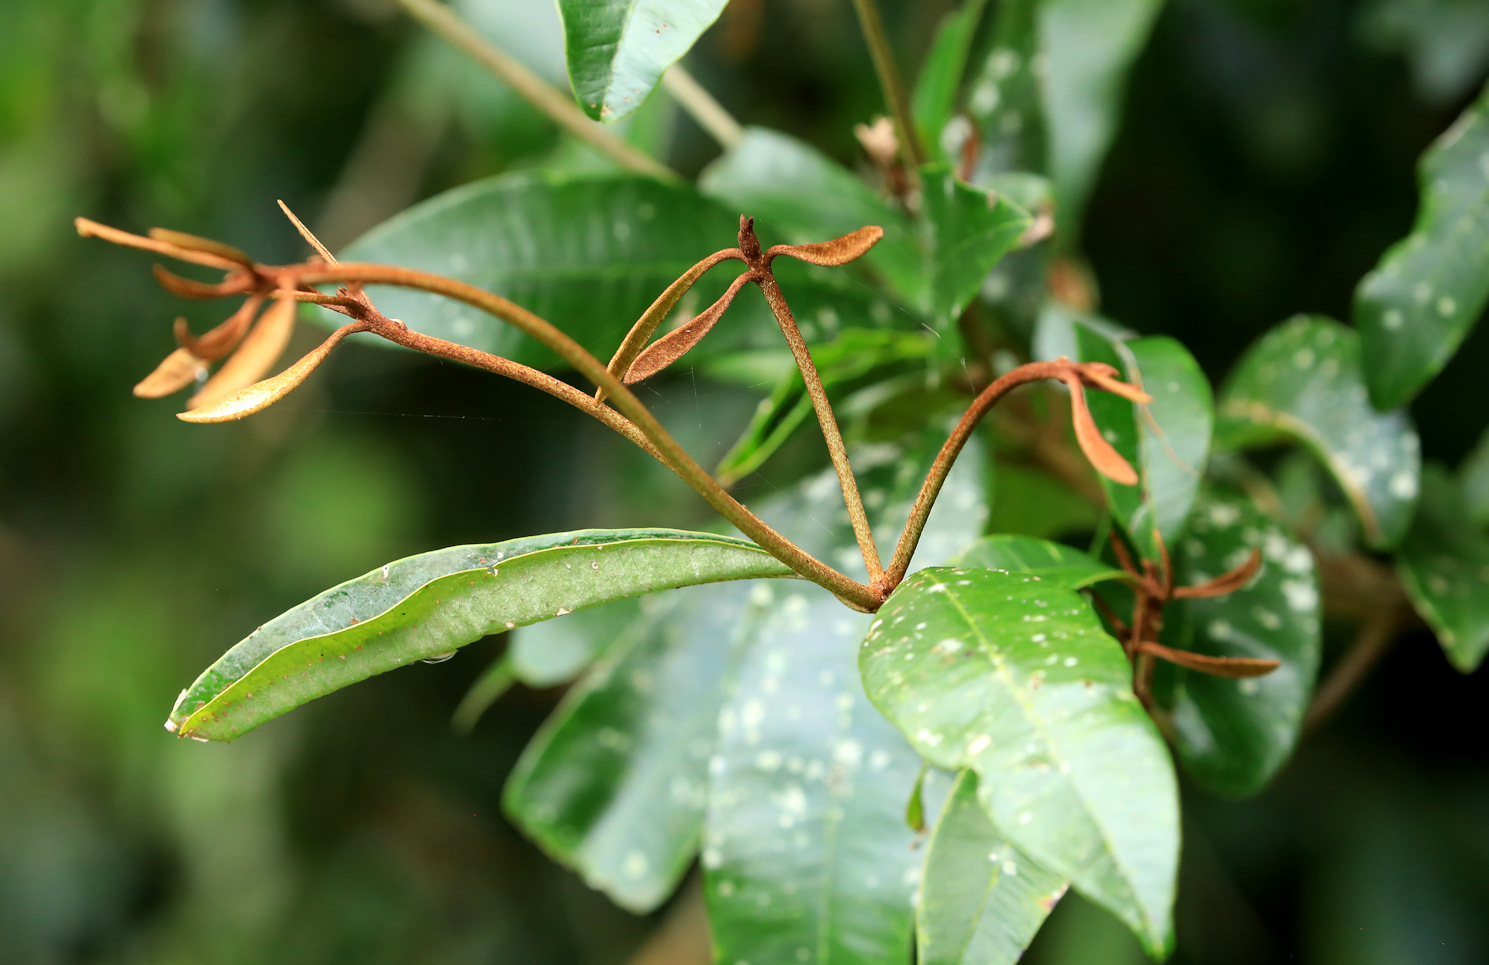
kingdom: Plantae
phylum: Tracheophyta
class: Magnoliopsida
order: Ericales
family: Sapotaceae
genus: Englerophytum
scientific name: Englerophytum natalense
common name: Silver-leaved milkplum
